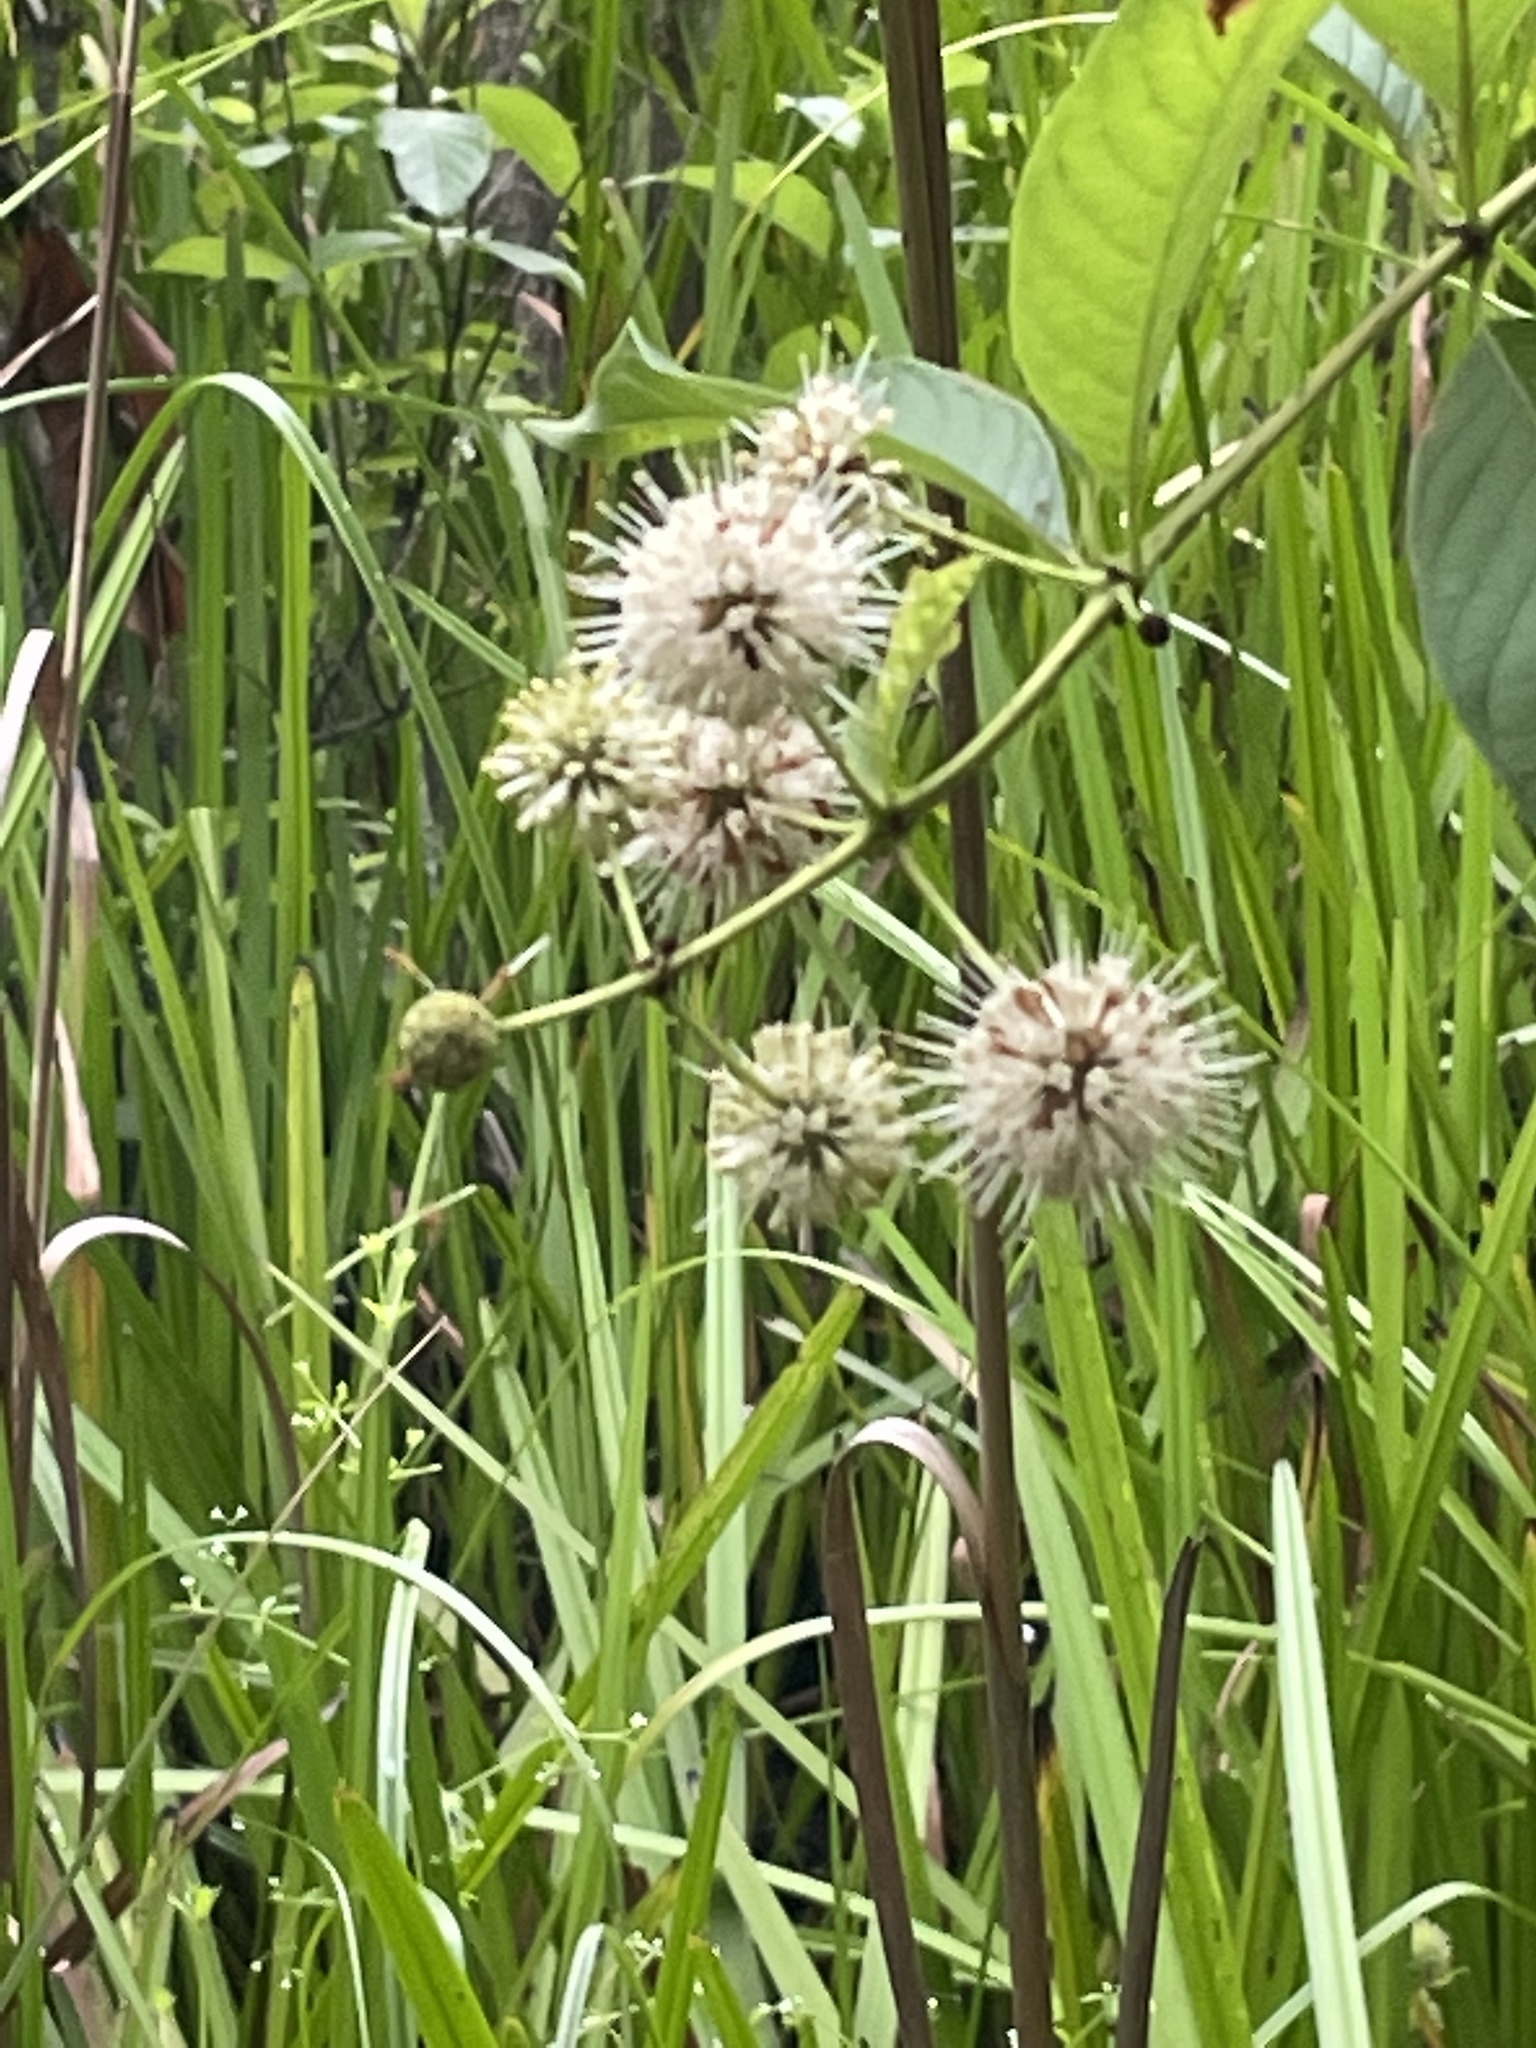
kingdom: Plantae
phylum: Tracheophyta
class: Magnoliopsida
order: Gentianales
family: Rubiaceae
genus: Cephalanthus
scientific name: Cephalanthus occidentalis
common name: Button-willow
